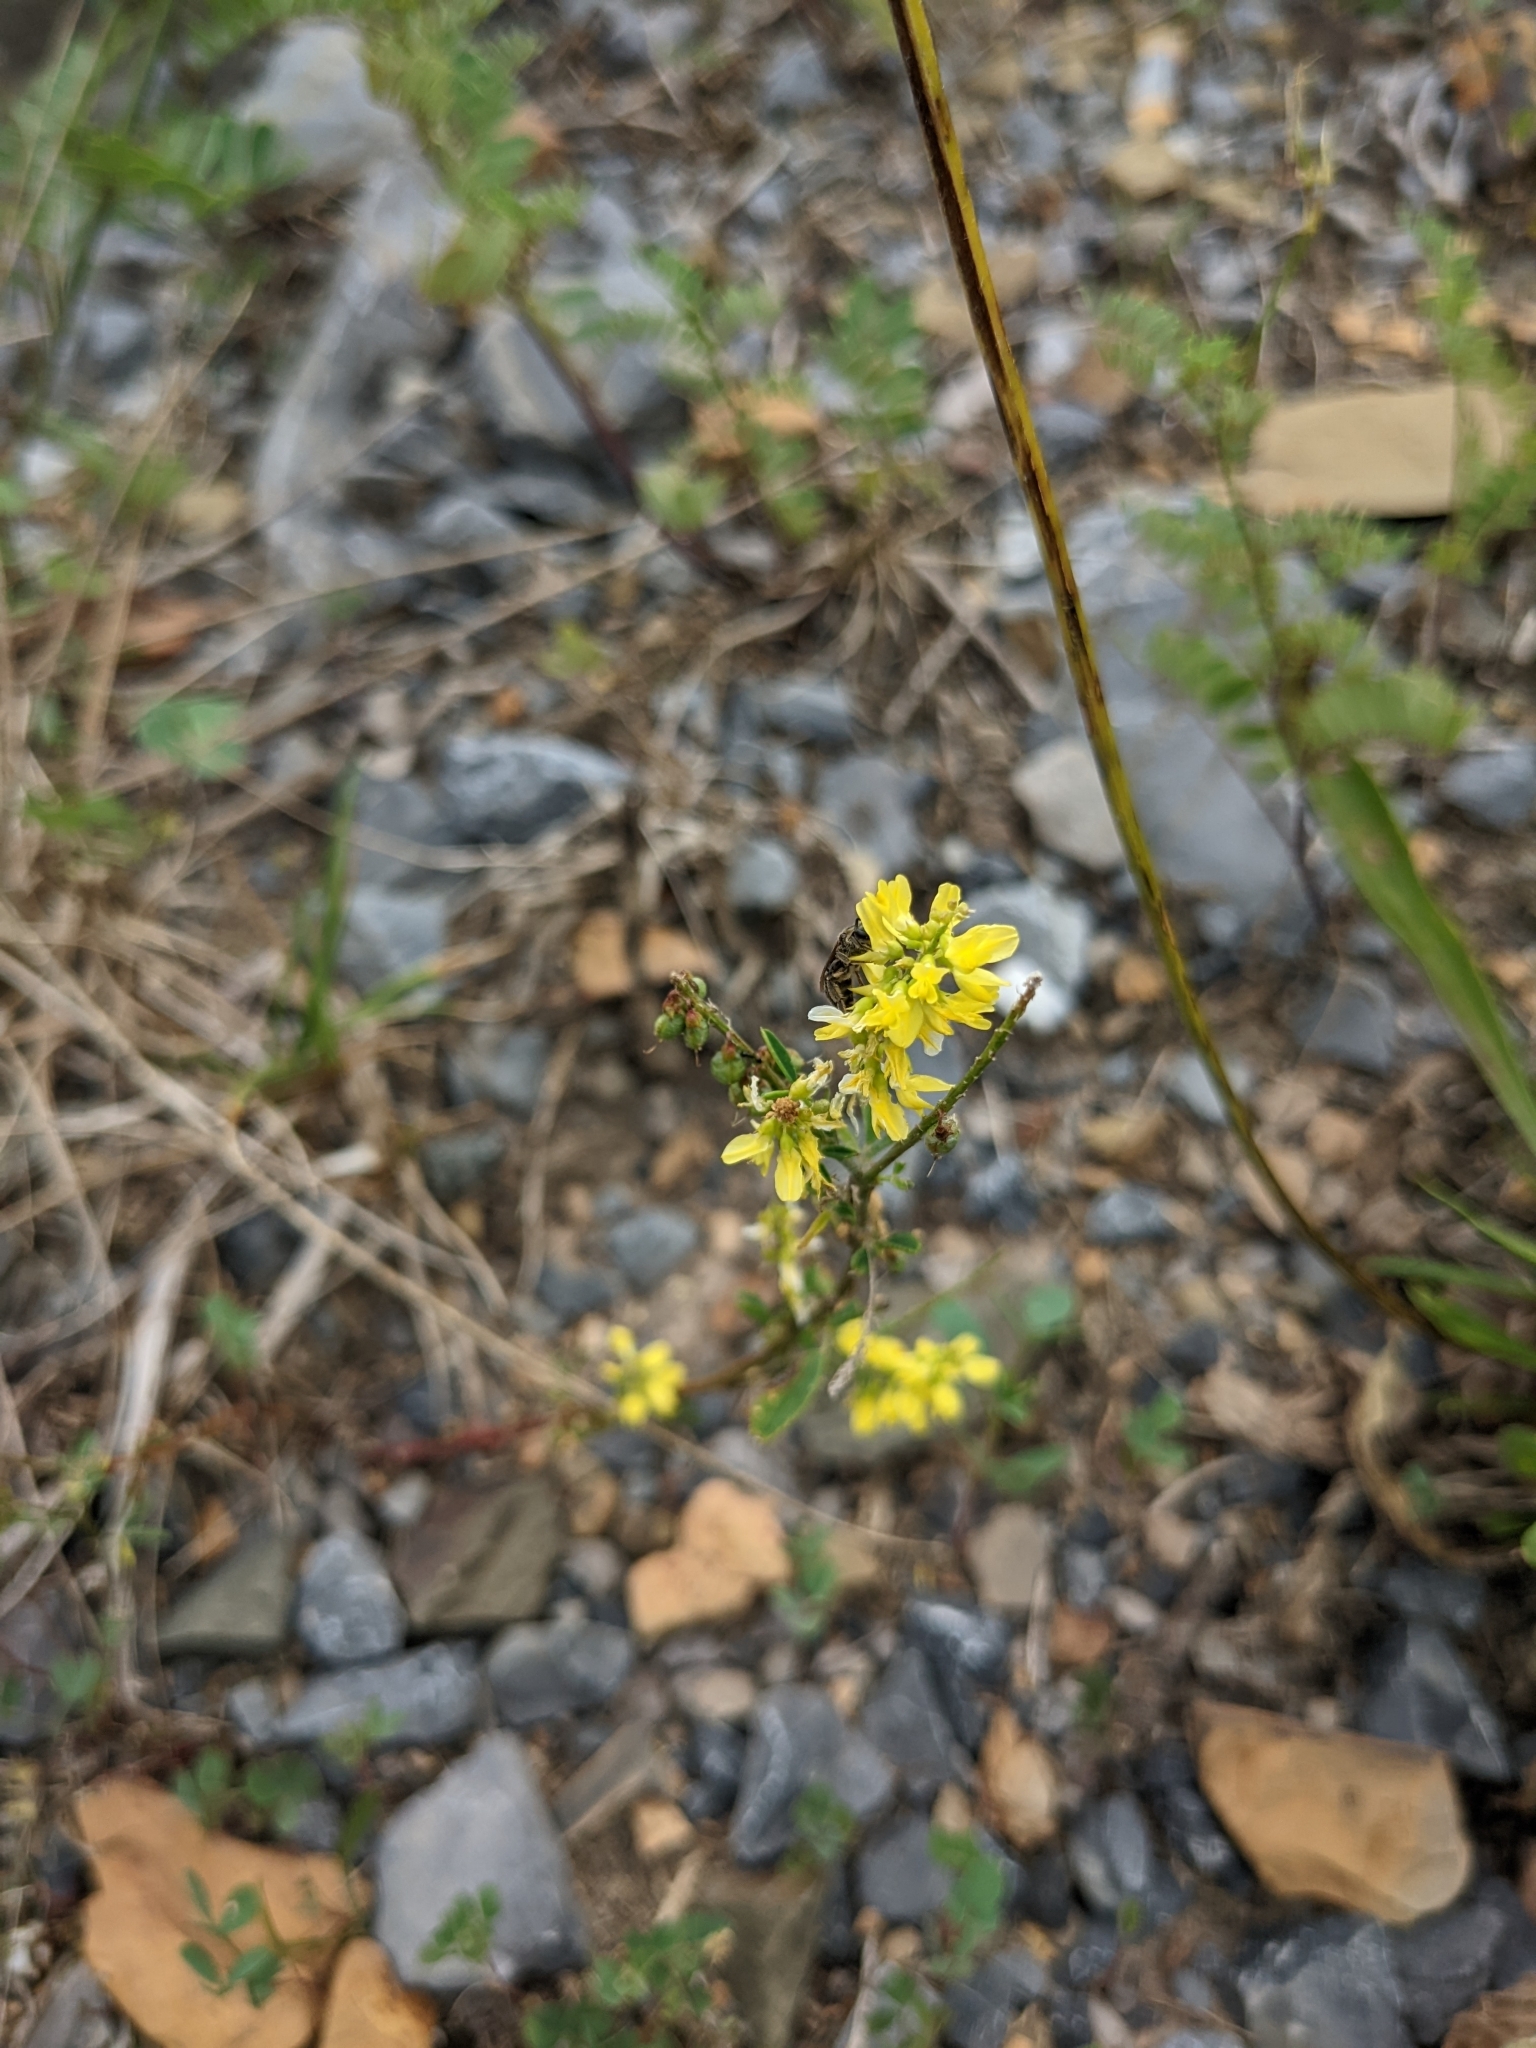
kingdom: Plantae
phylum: Tracheophyta
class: Magnoliopsida
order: Fabales
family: Fabaceae
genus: Melilotus
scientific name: Melilotus officinalis
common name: Sweetclover
